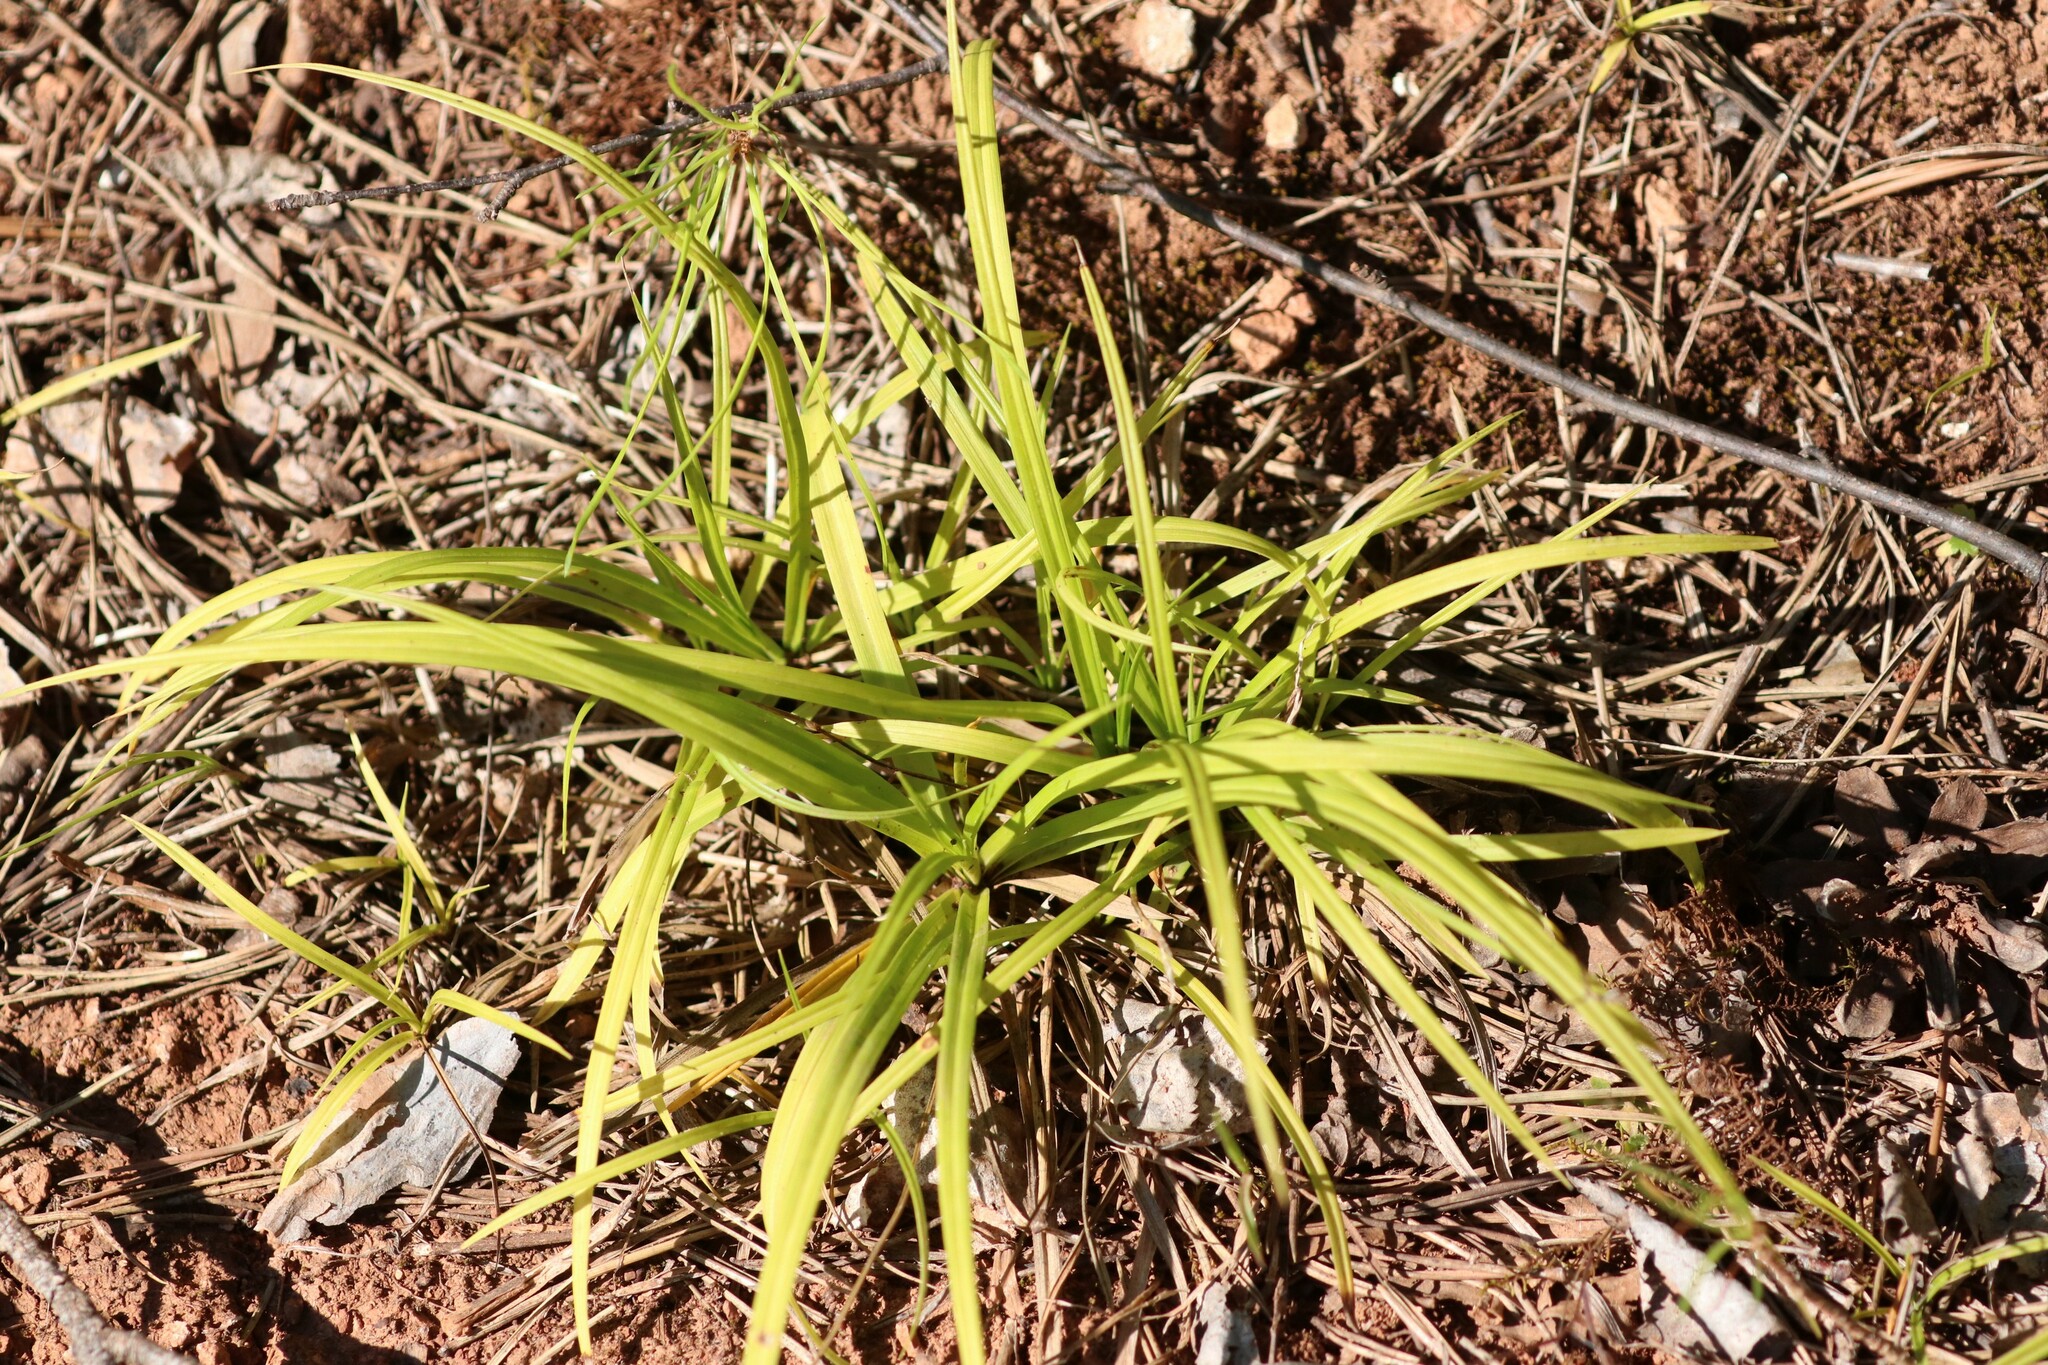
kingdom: Plantae
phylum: Tracheophyta
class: Liliopsida
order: Poales
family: Cyperaceae
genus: Carex
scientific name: Carex digitata
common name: Fingered sedge
